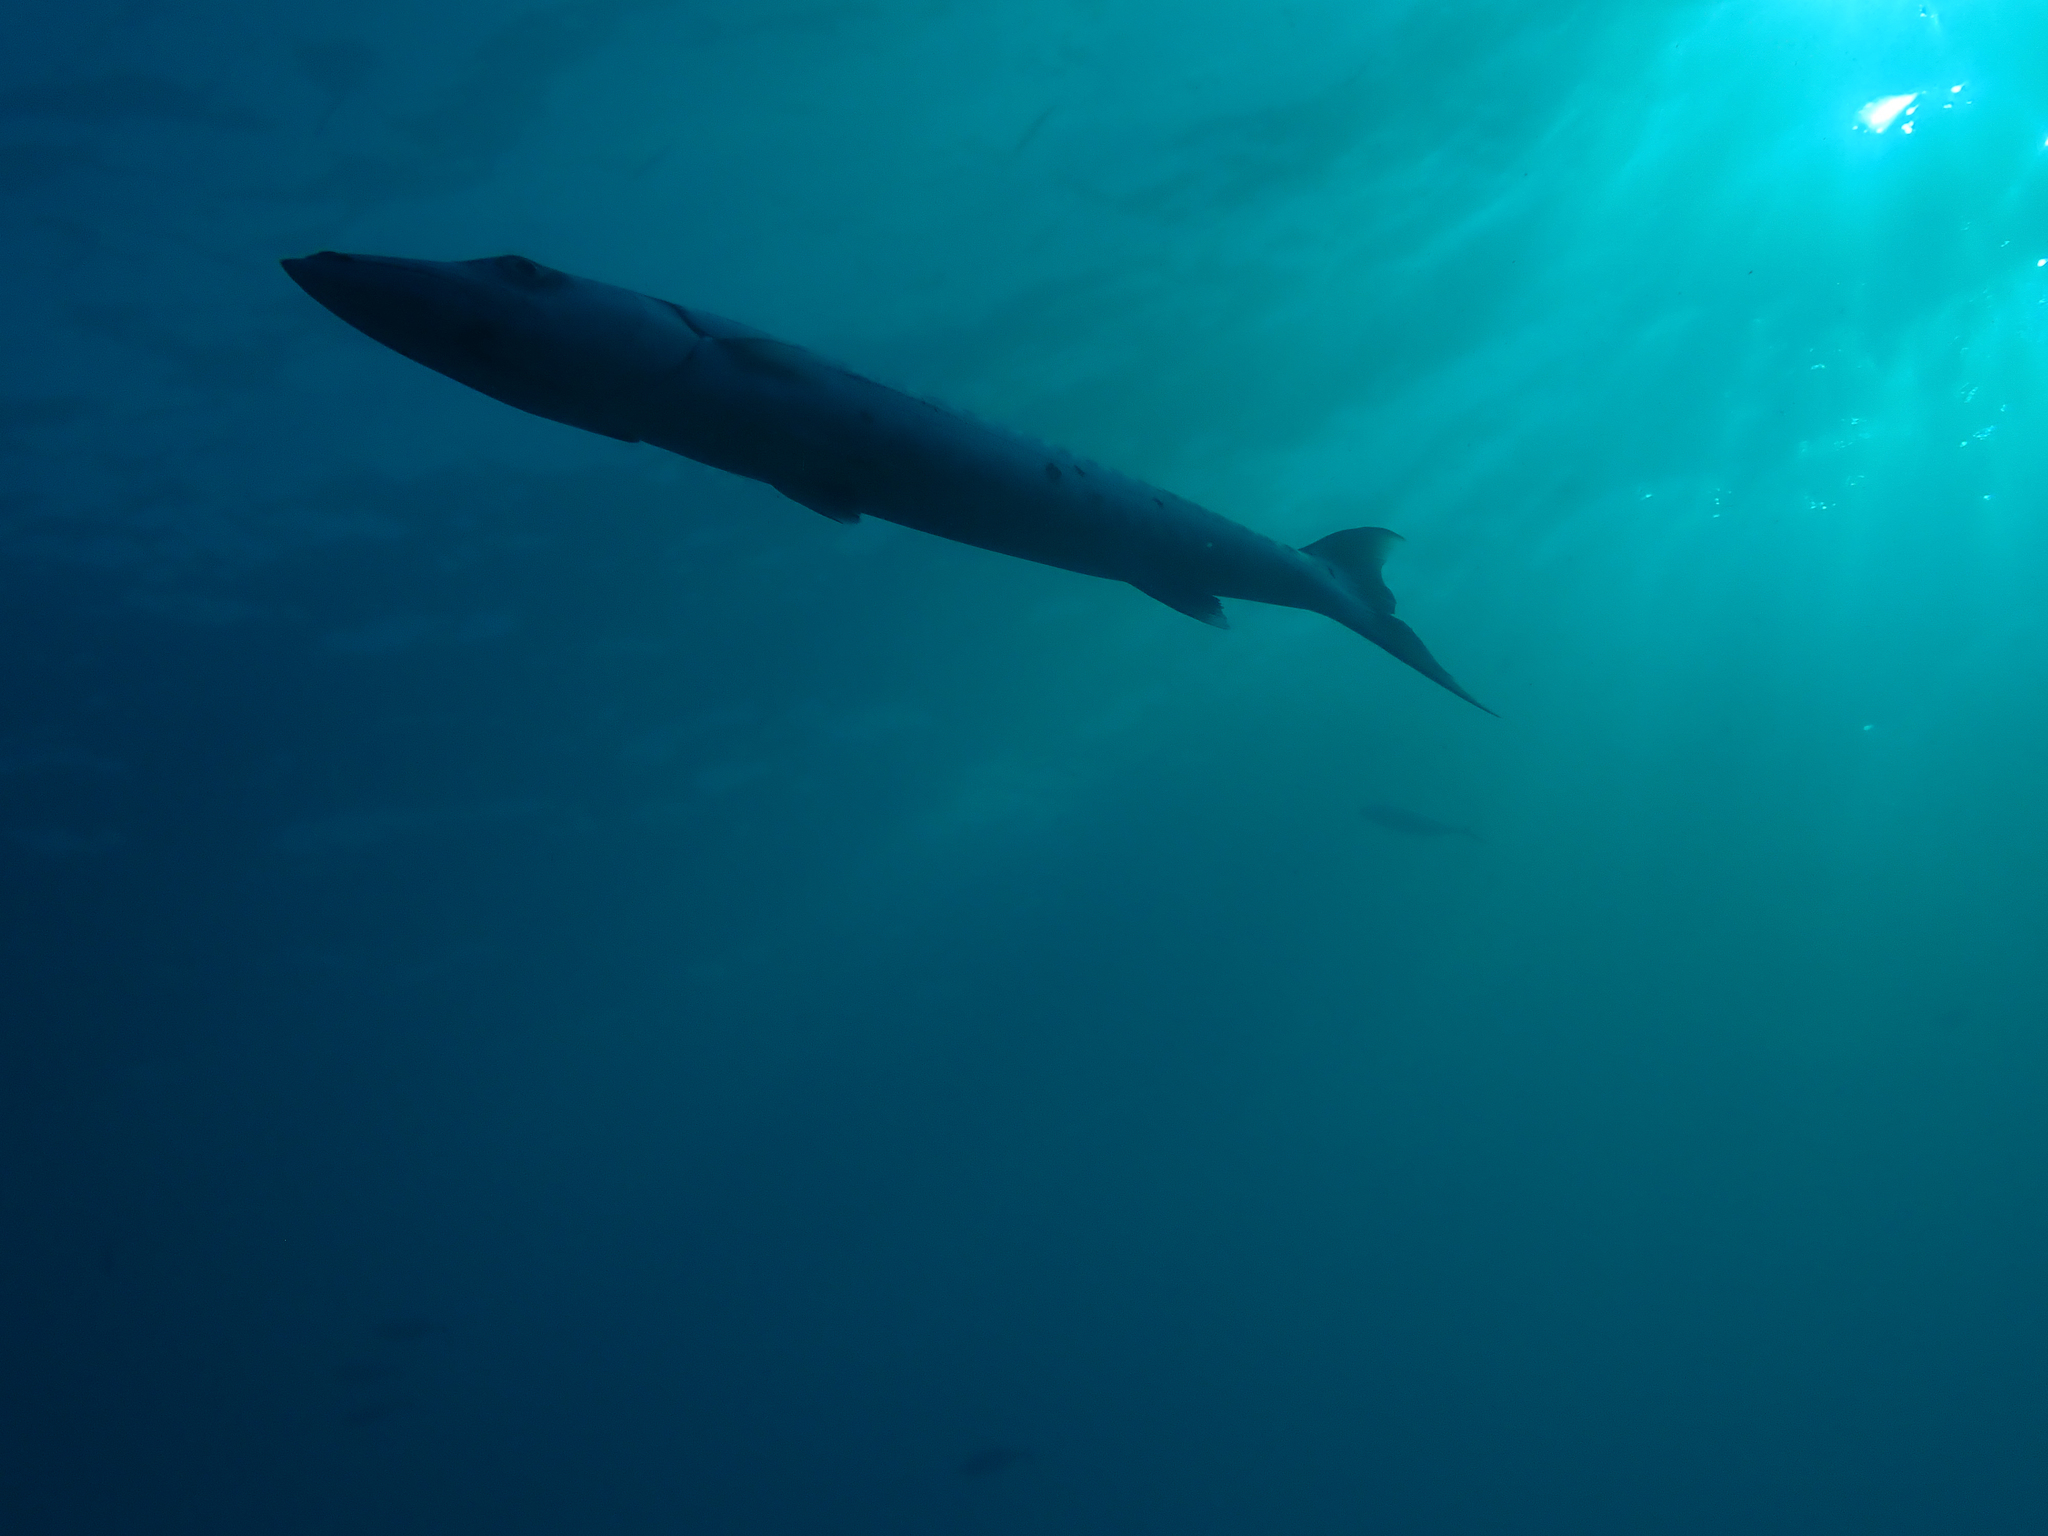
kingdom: Animalia
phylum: Chordata
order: Perciformes
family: Sphyraenidae
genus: Sphyraena
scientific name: Sphyraena barracuda
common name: Great barracuda
